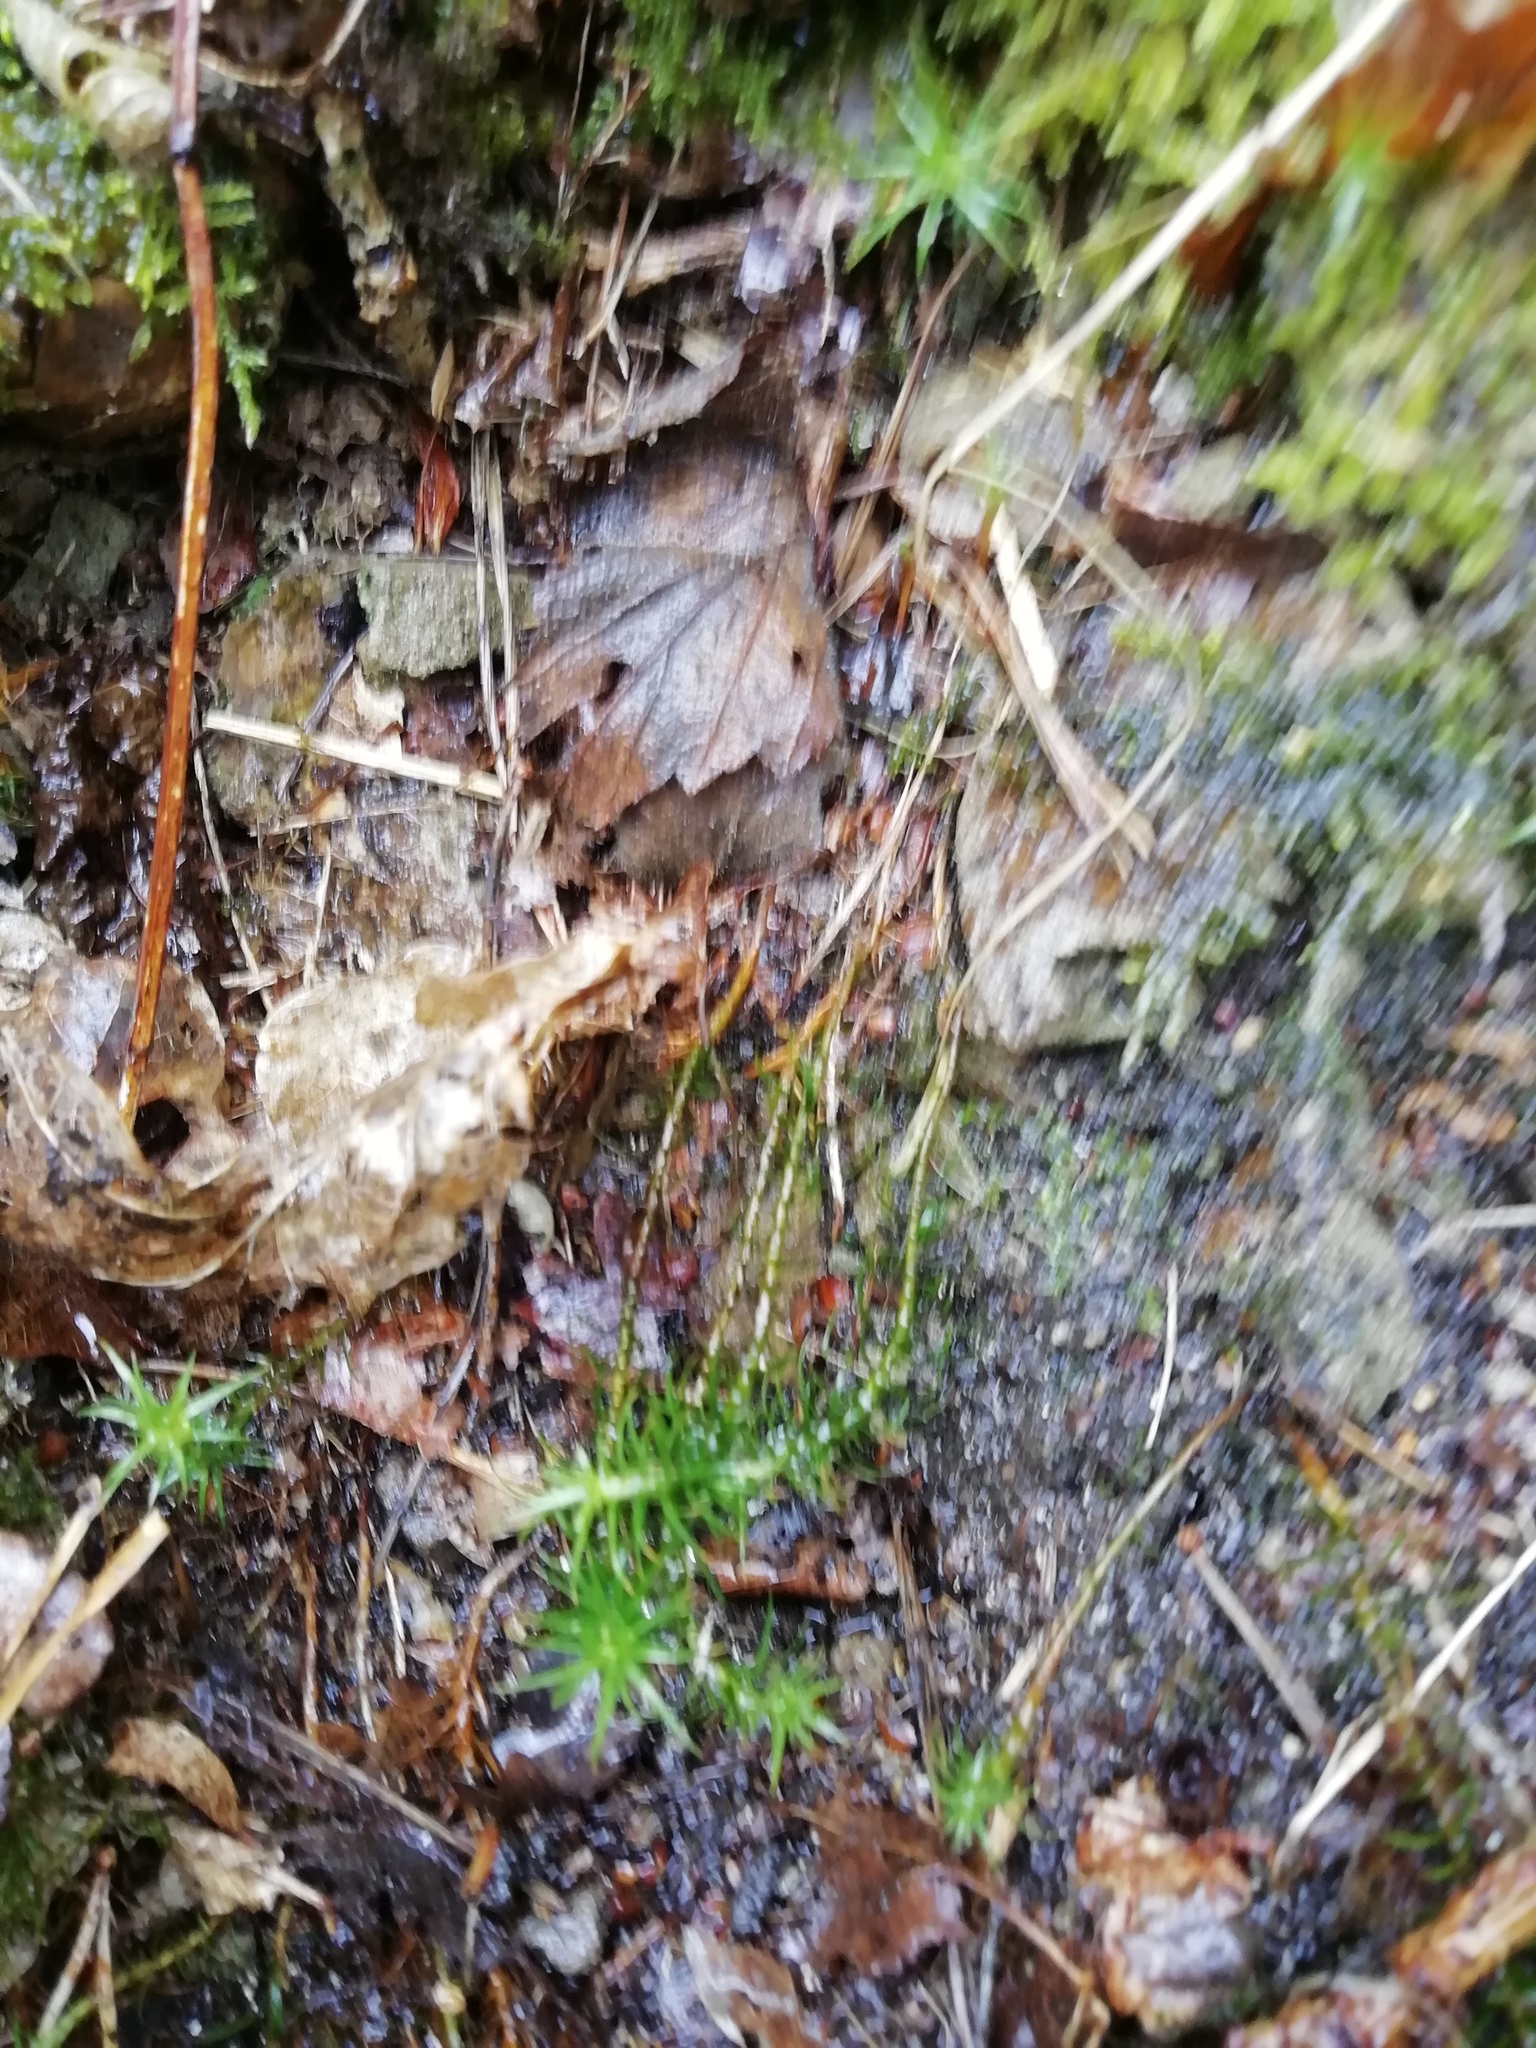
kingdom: Plantae
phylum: Bryophyta
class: Polytrichopsida
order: Polytrichales
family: Polytrichaceae
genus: Polytrichum
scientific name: Polytrichum formosum
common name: Bank haircap moss
